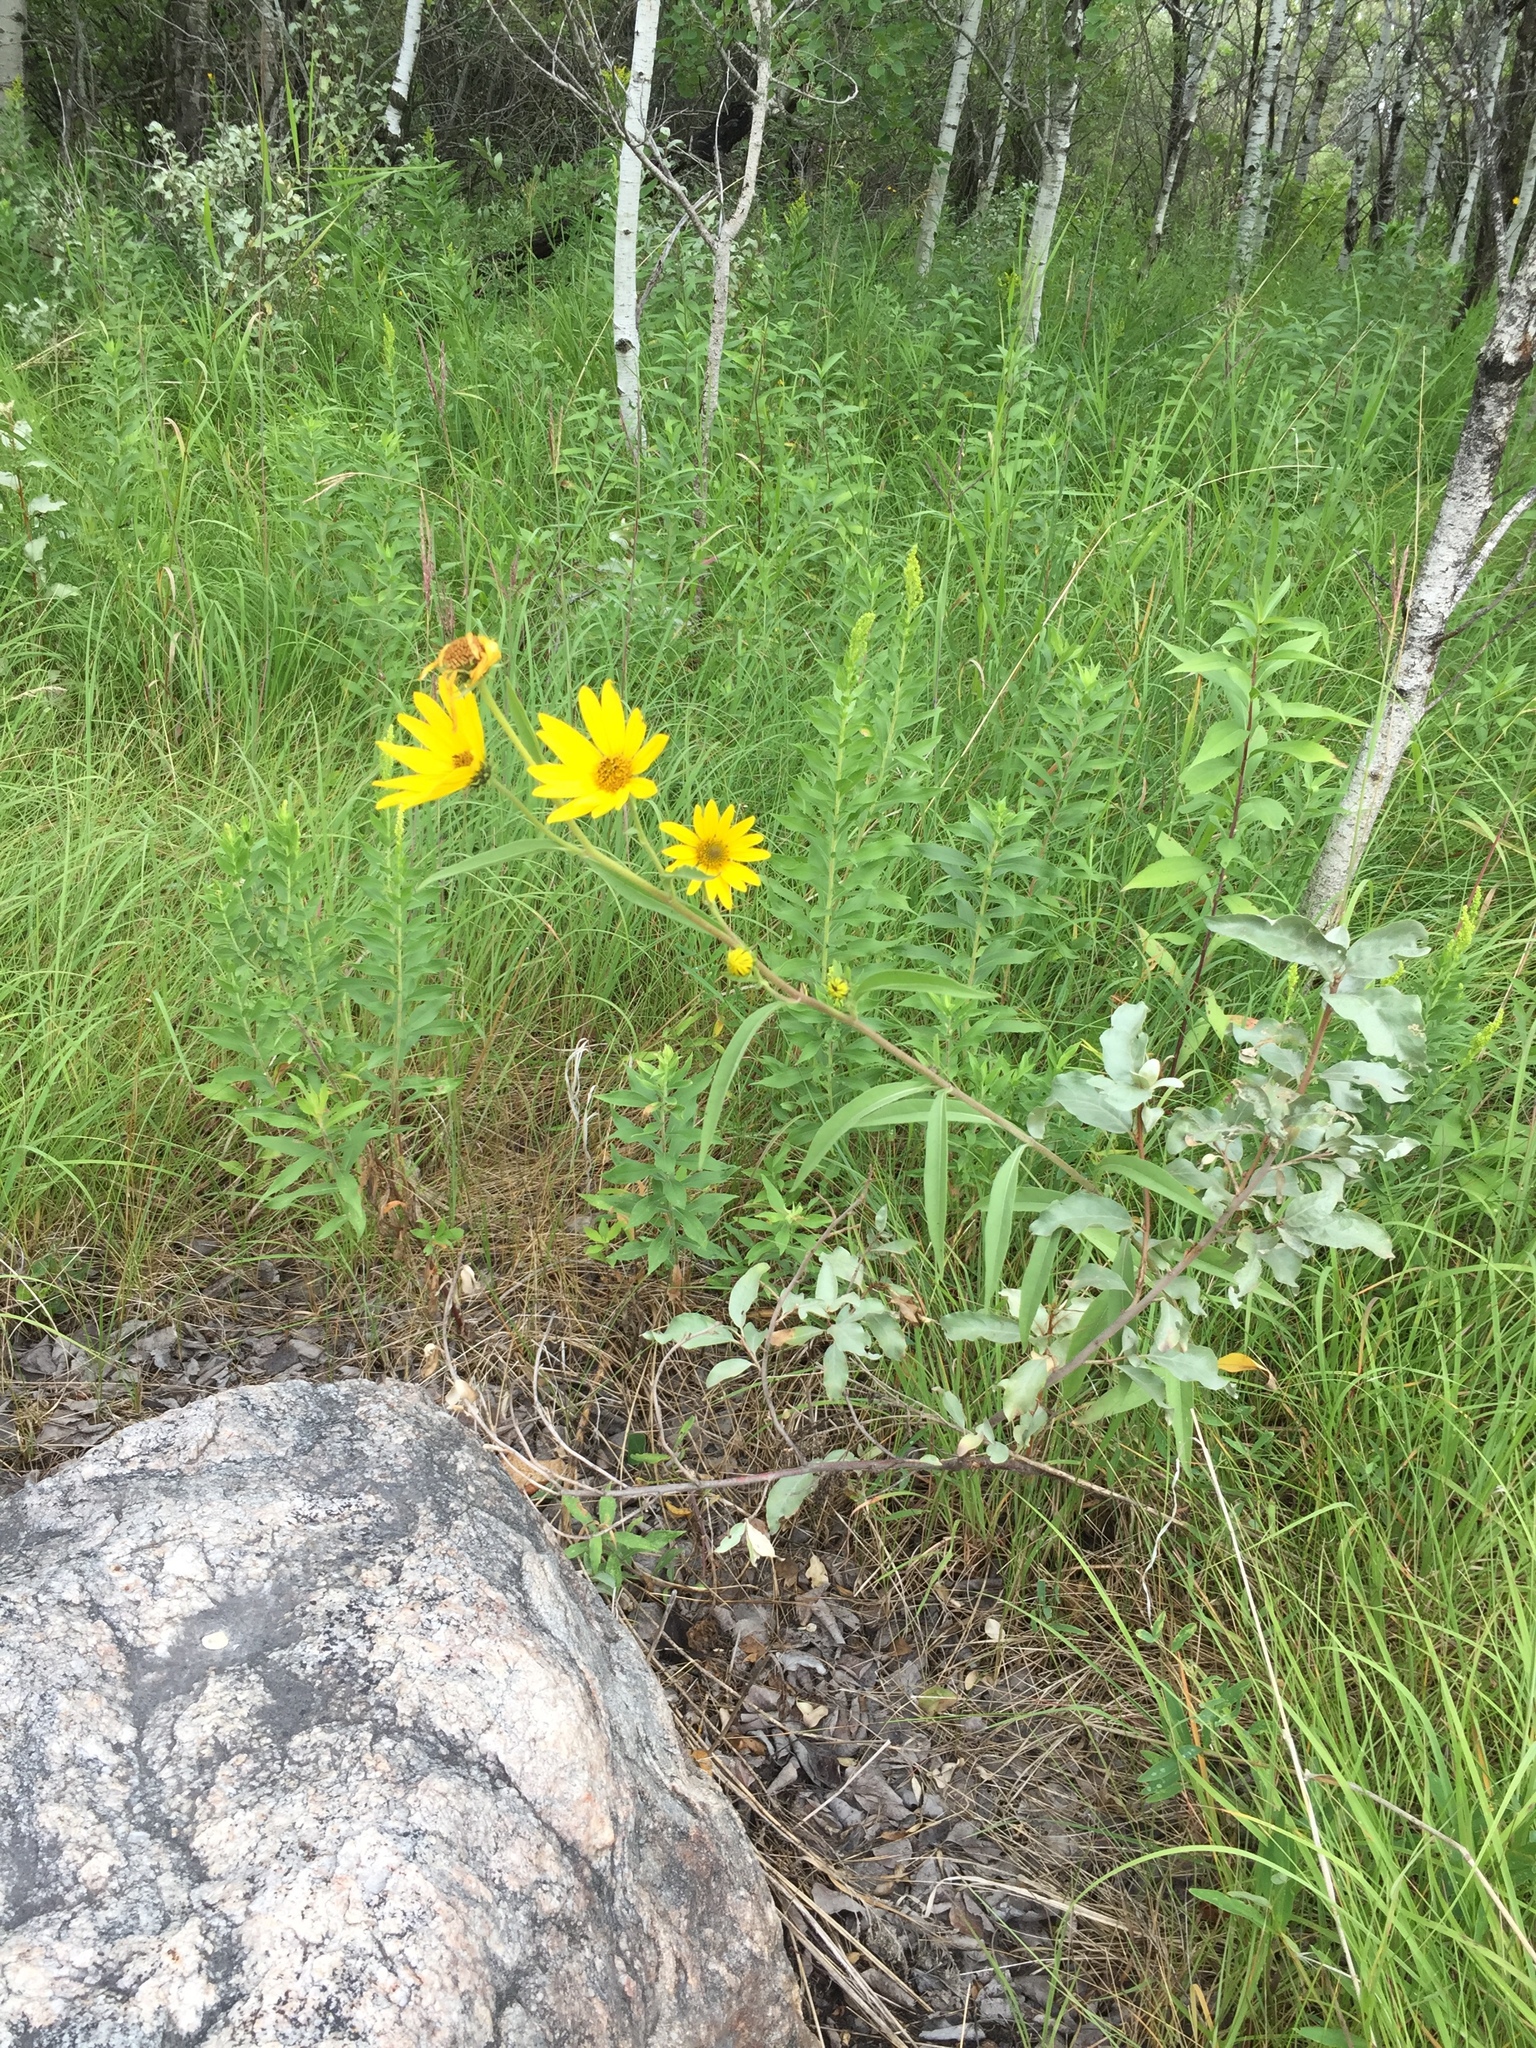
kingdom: Plantae
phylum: Tracheophyta
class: Magnoliopsida
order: Asterales
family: Asteraceae
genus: Helianthus
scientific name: Helianthus maximiliani
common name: Maximilian's sunflower
